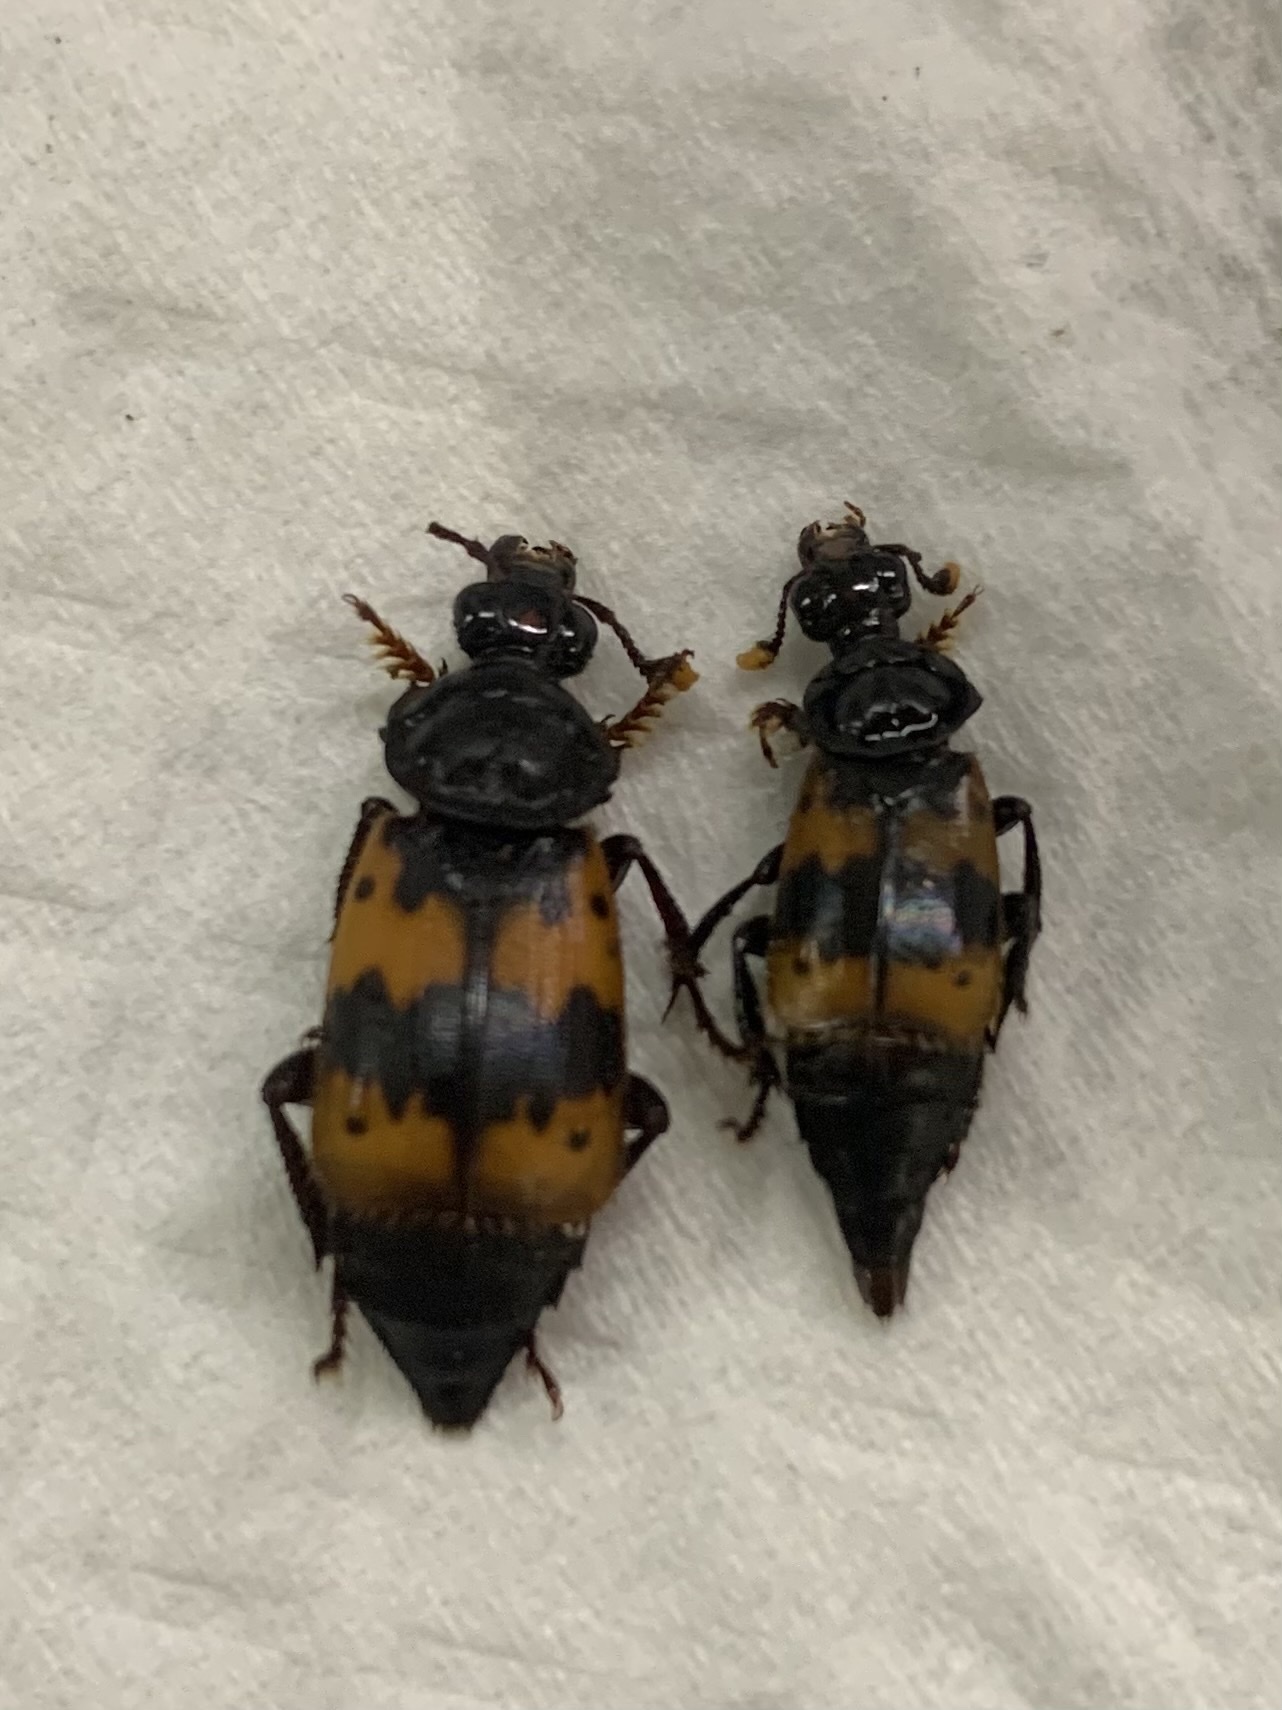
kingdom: Animalia
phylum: Arthropoda
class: Insecta
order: Coleoptera
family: Staphylinidae
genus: Nicrophorus
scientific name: Nicrophorus quadripunctatus
